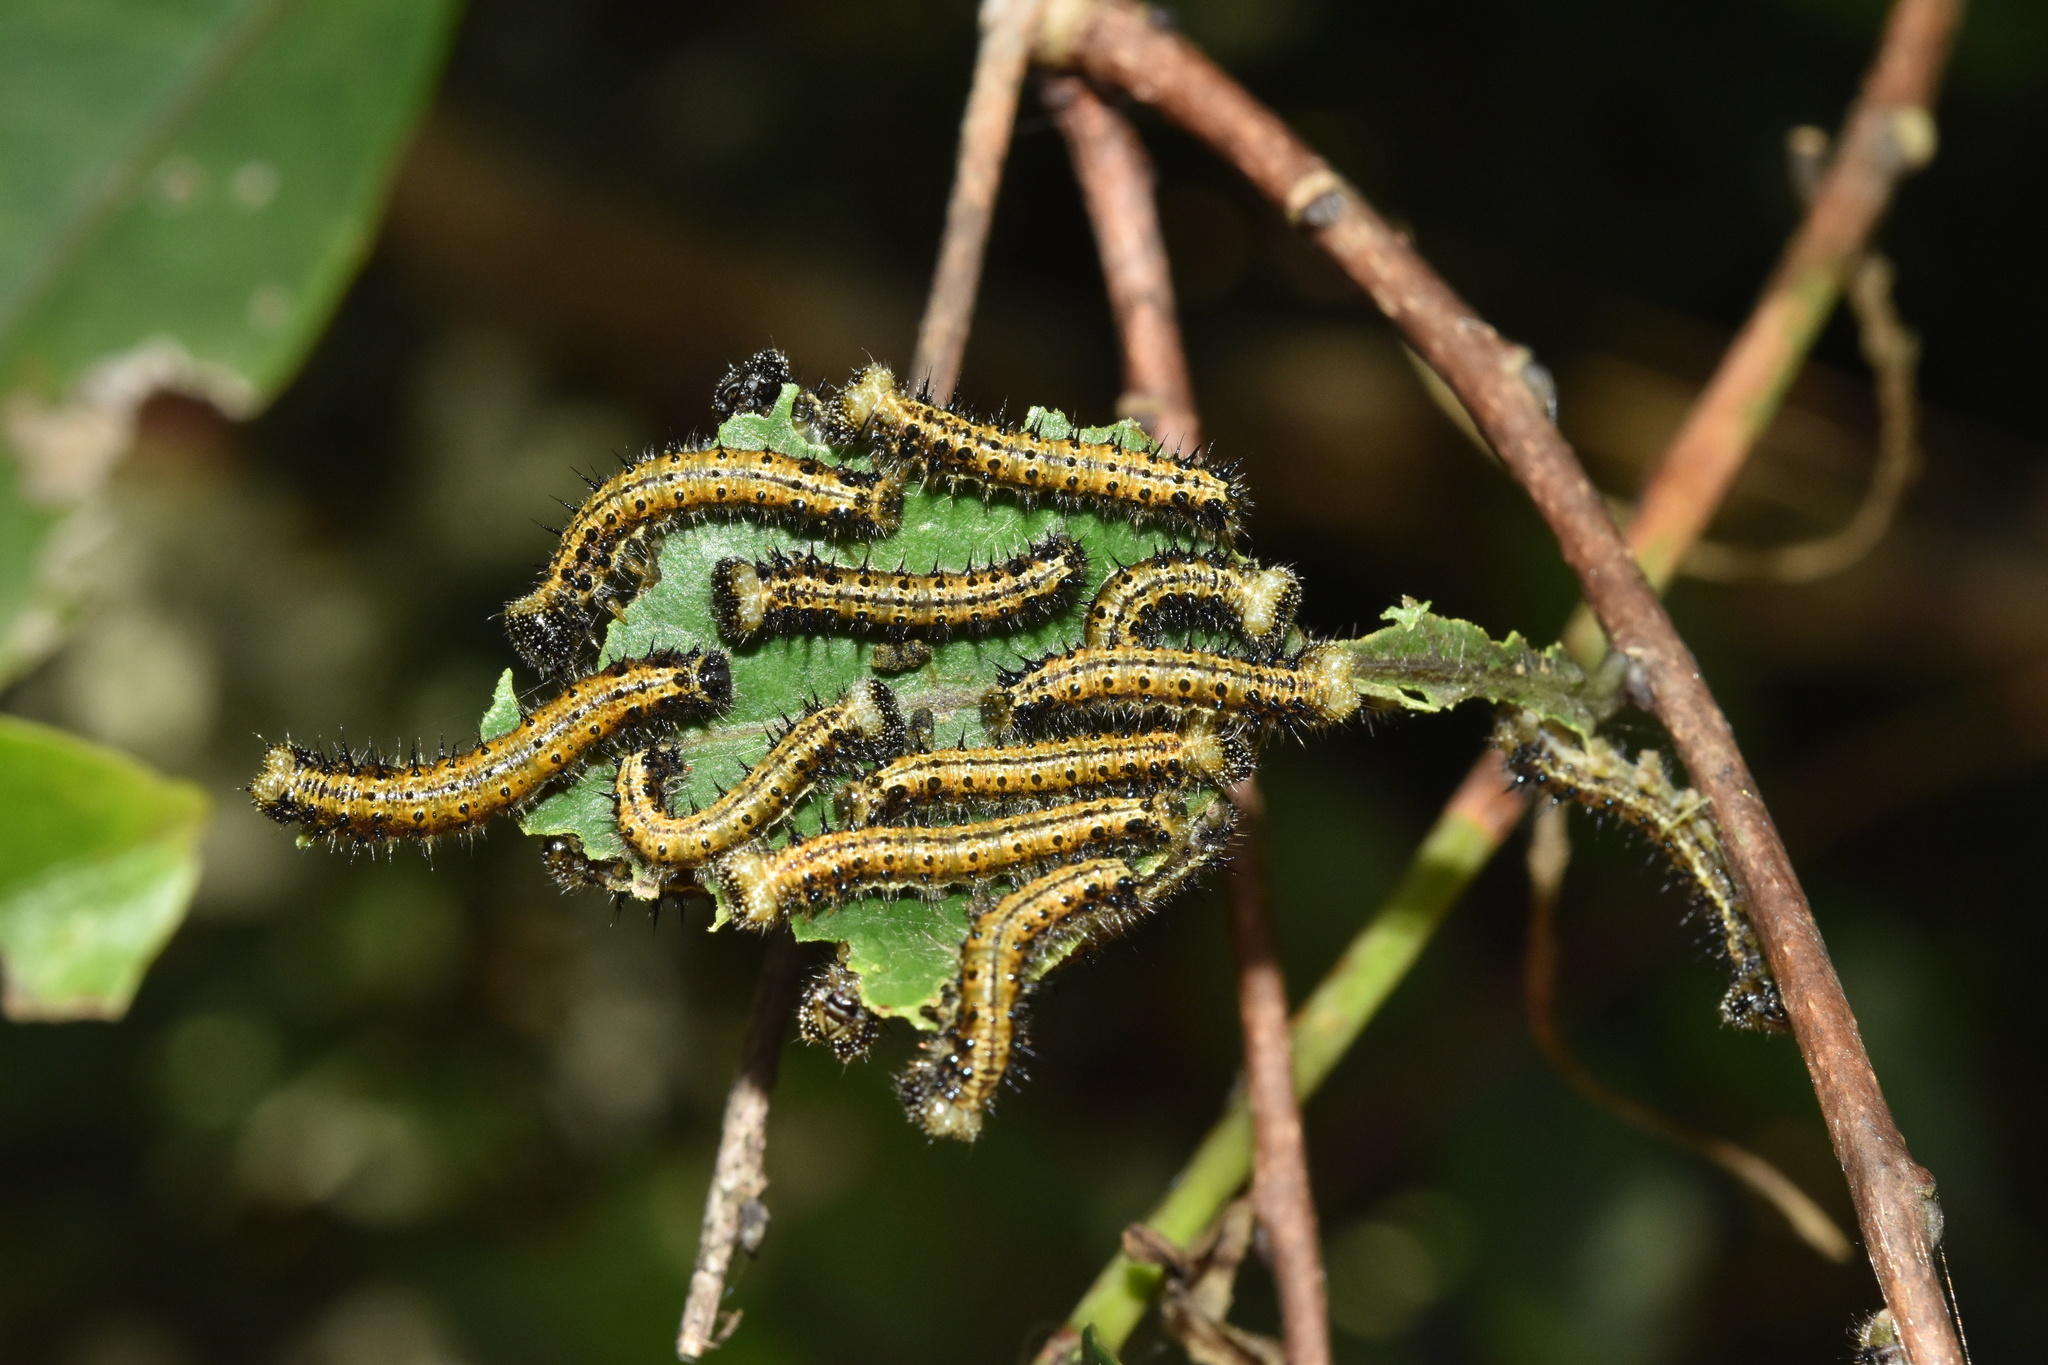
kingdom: Animalia
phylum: Arthropoda
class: Insecta
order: Lepidoptera
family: Nymphalidae
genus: Asterope
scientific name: Asterope boisduvali
